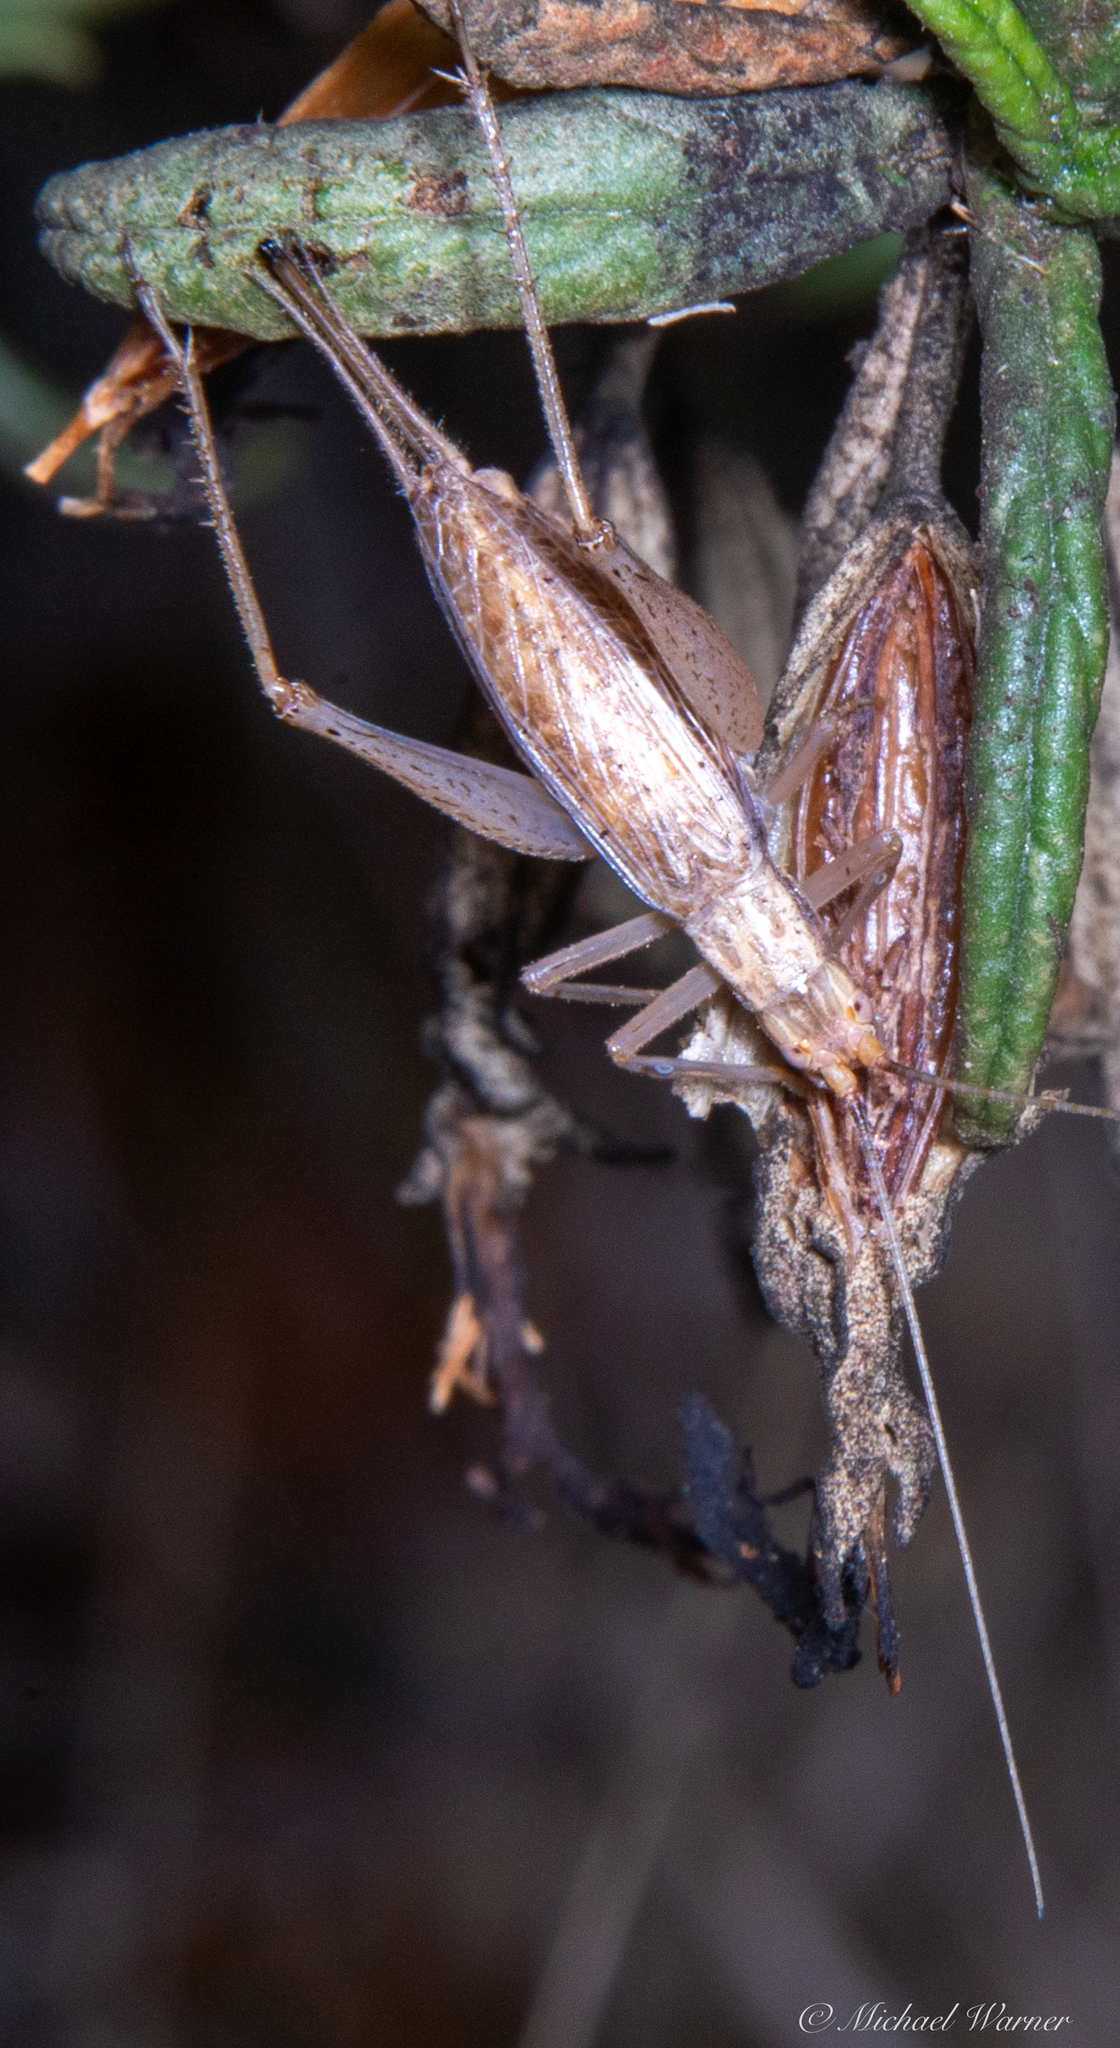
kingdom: Animalia
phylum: Arthropoda
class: Insecta
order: Orthoptera
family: Gryllidae
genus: Oecanthus
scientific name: Oecanthus californicus
